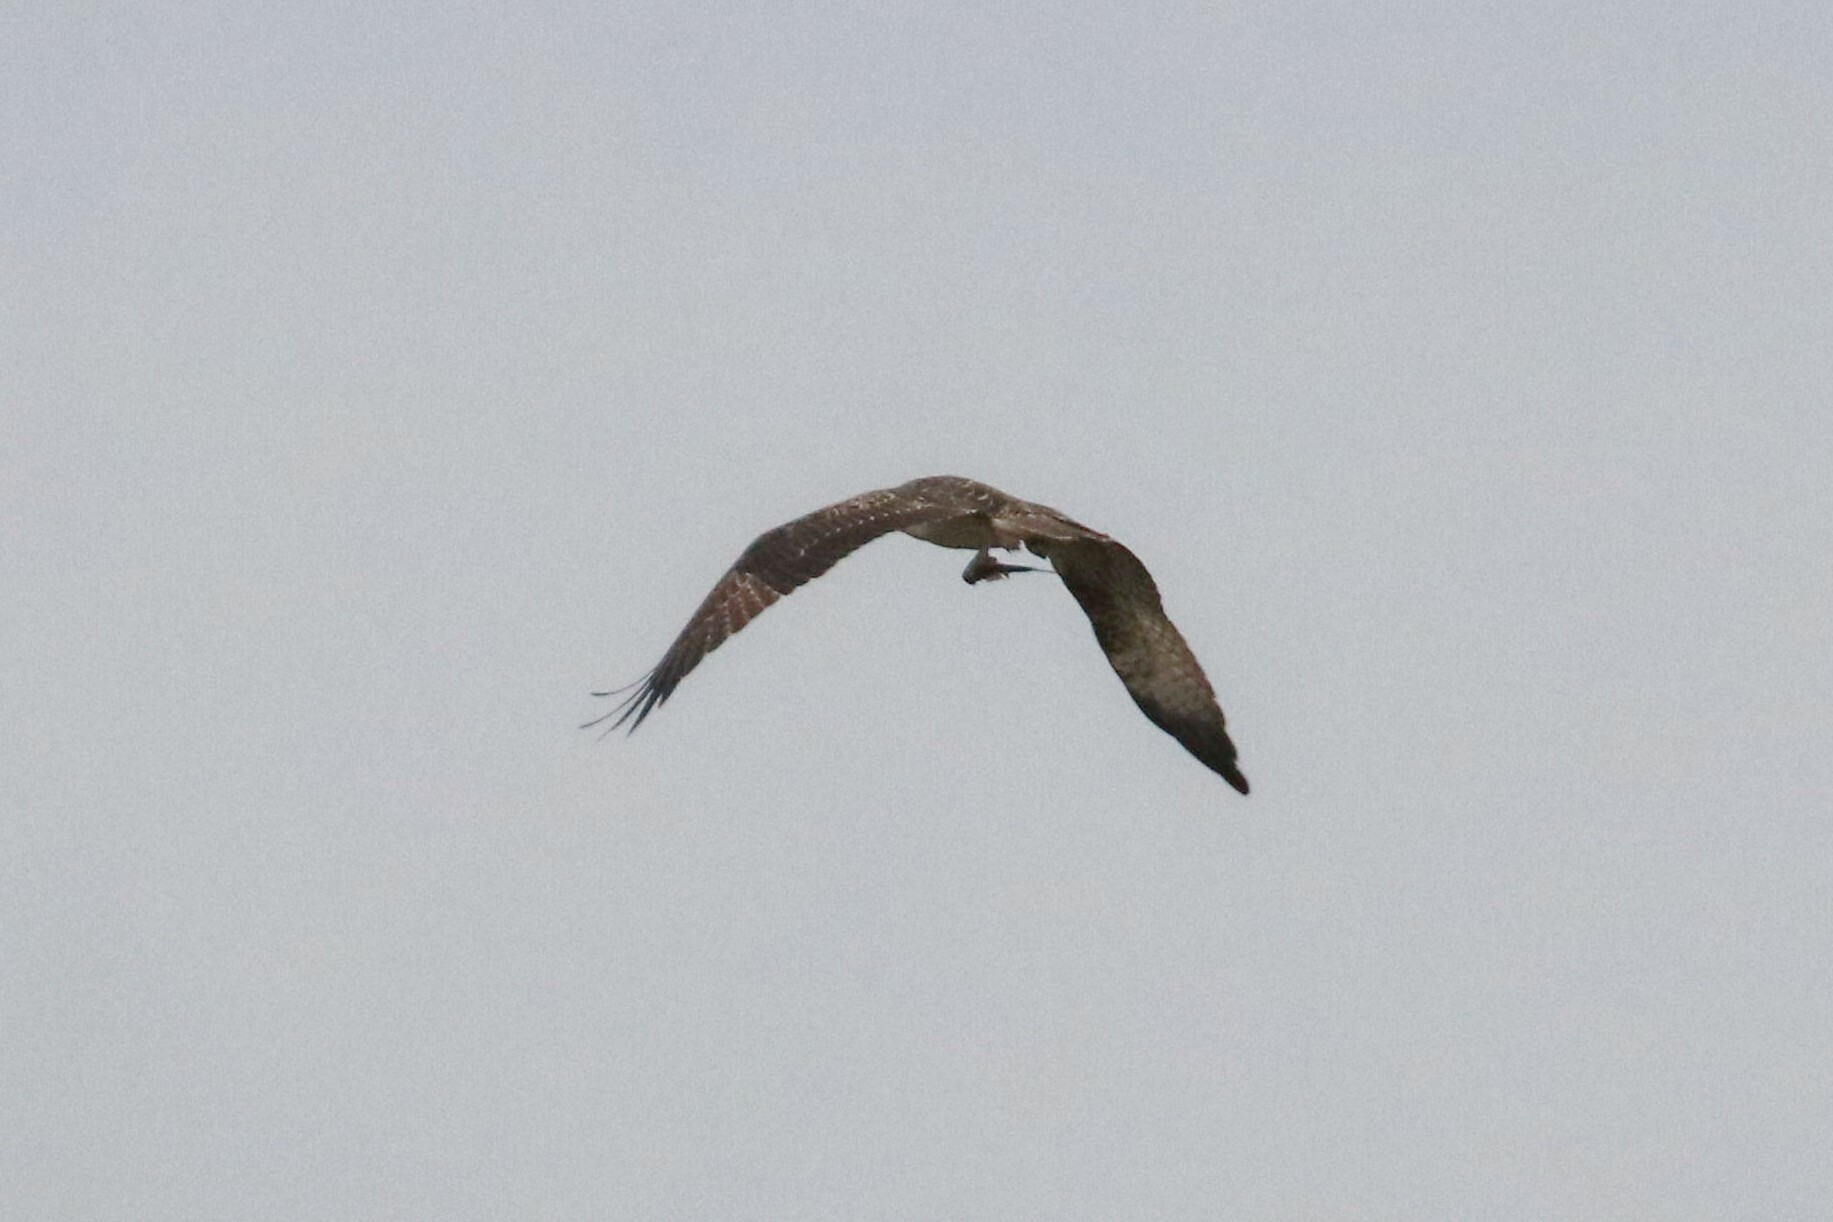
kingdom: Animalia
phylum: Chordata
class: Aves
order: Accipitriformes
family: Pandionidae
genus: Pandion
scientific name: Pandion haliaetus
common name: Osprey
